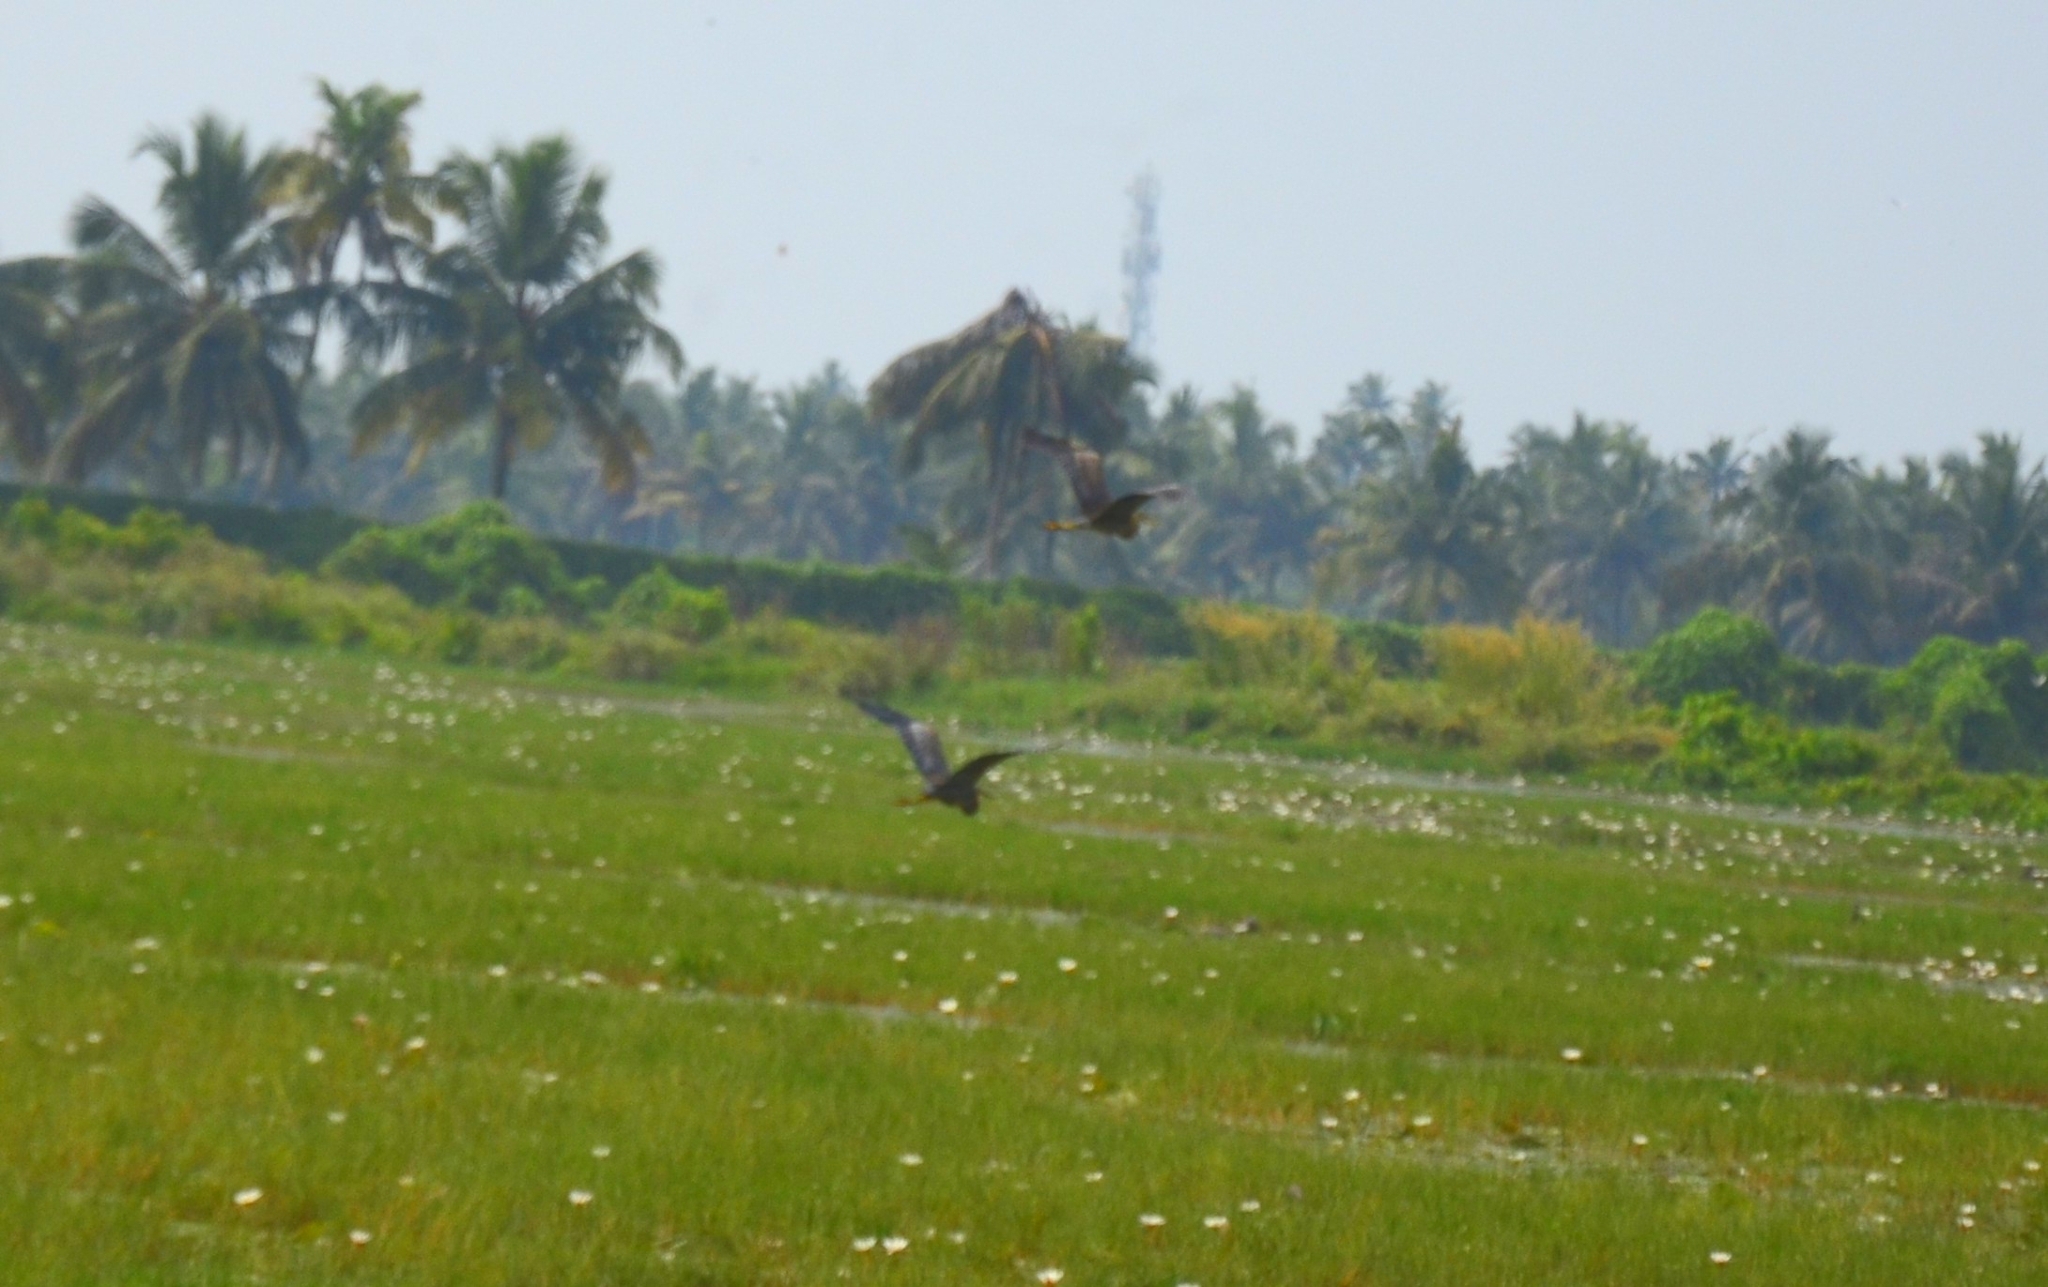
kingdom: Animalia
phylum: Chordata
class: Aves
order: Pelecaniformes
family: Ardeidae
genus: Ardea
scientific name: Ardea purpurea
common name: Purple heron
